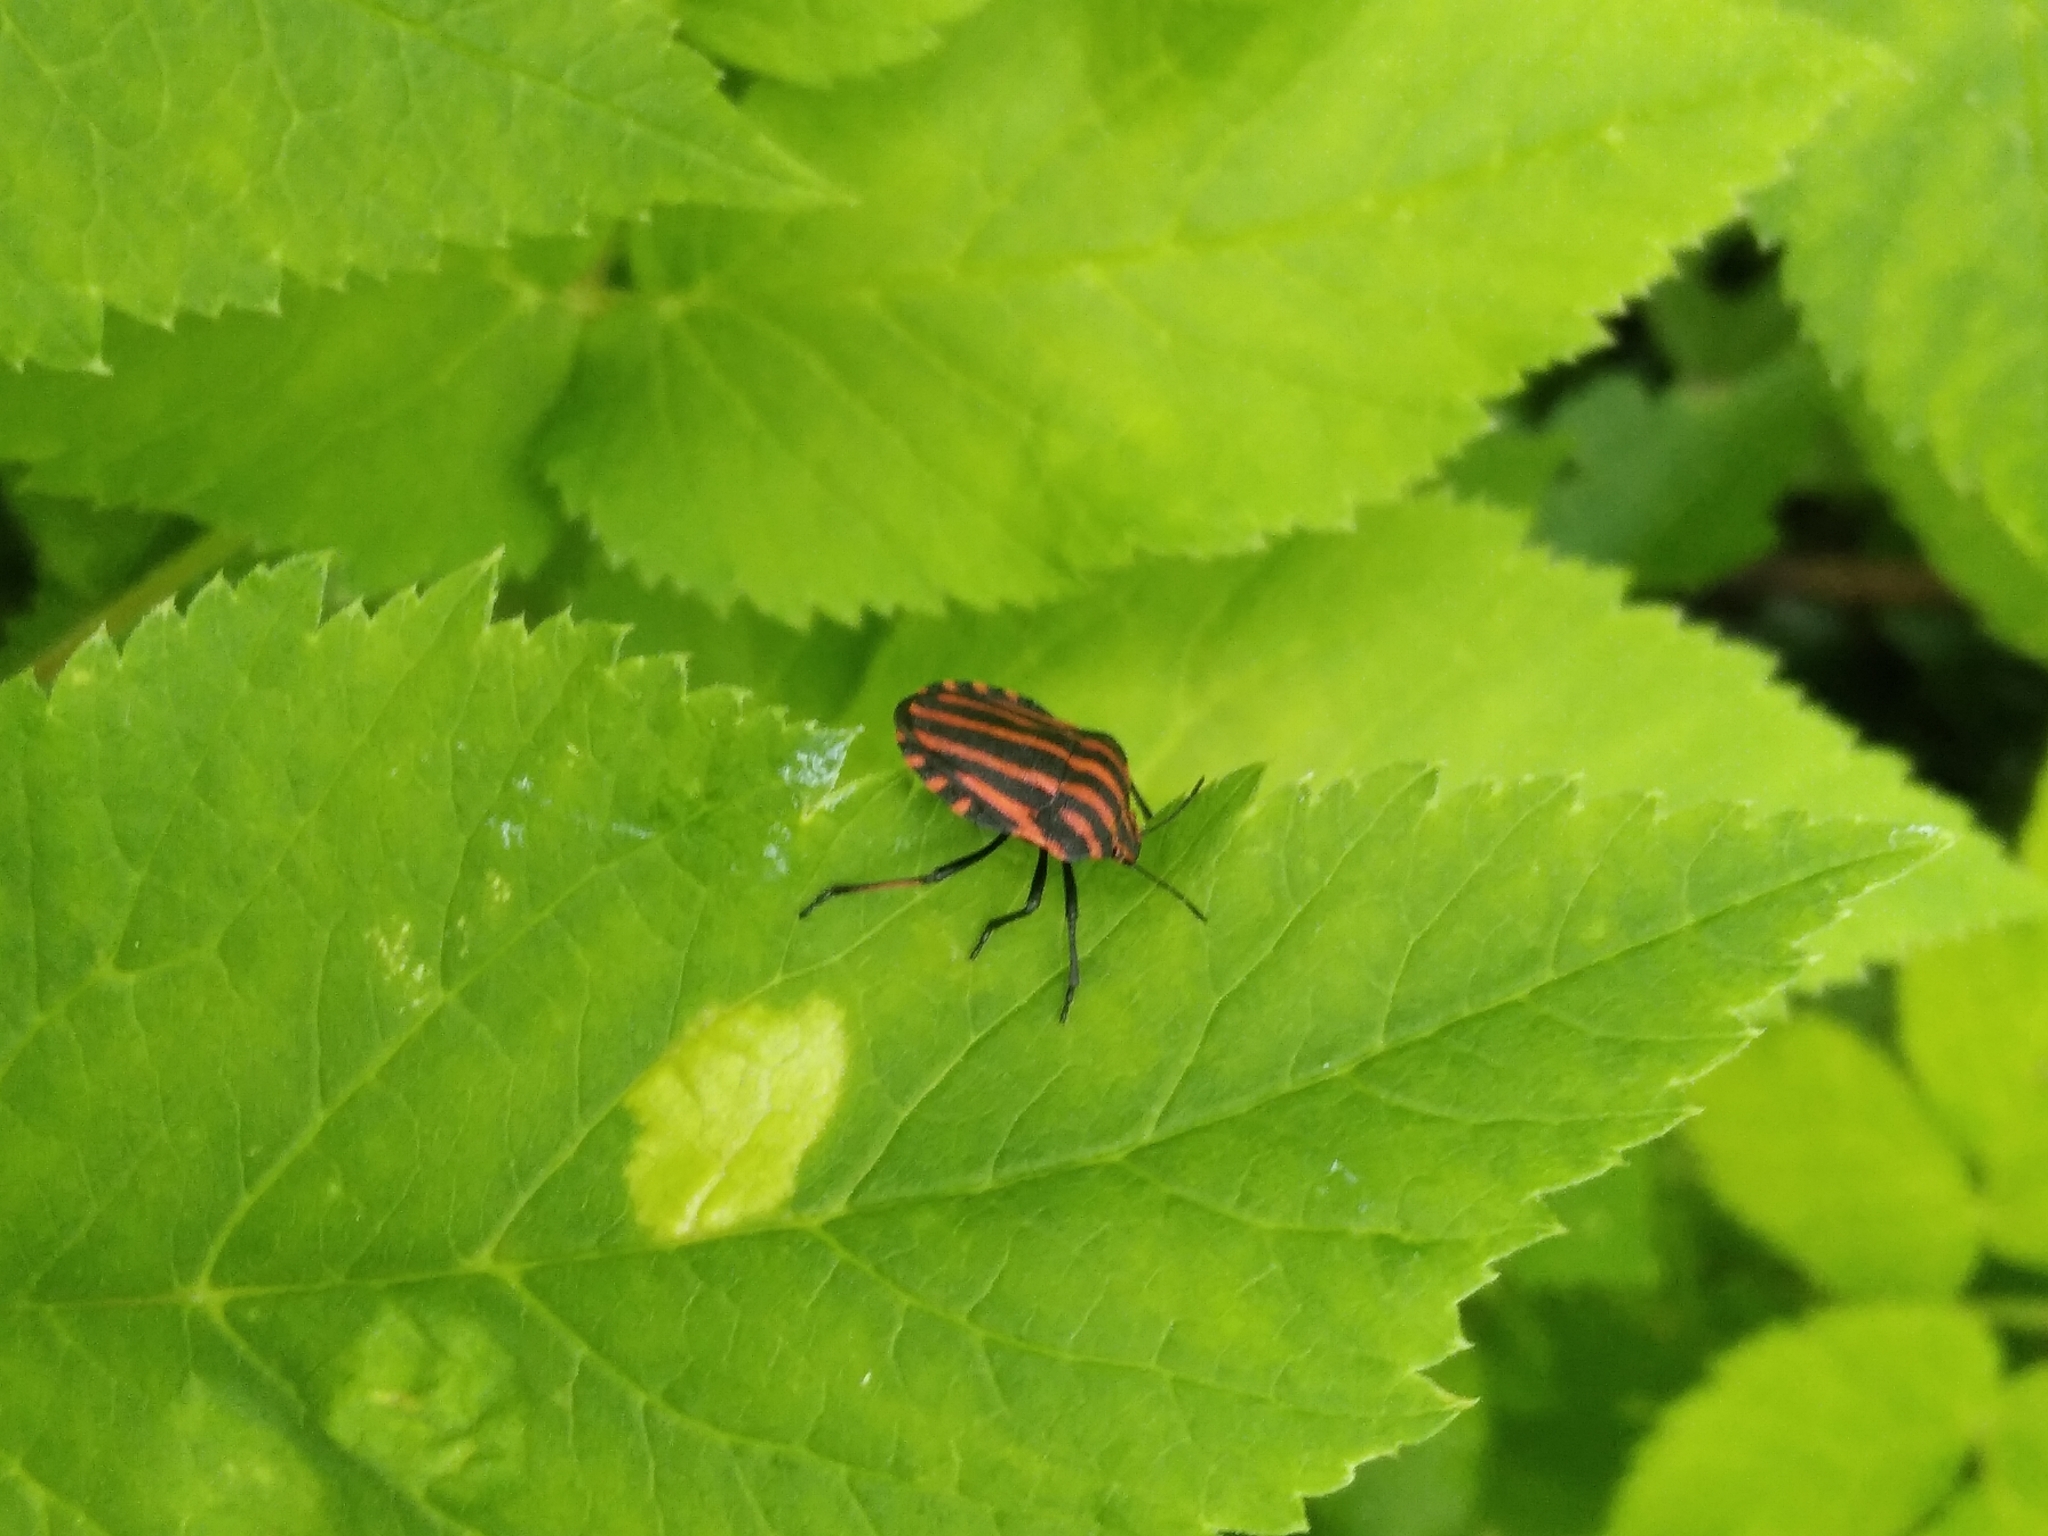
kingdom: Animalia
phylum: Arthropoda
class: Insecta
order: Hemiptera
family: Pentatomidae
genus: Graphosoma
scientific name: Graphosoma italicum
